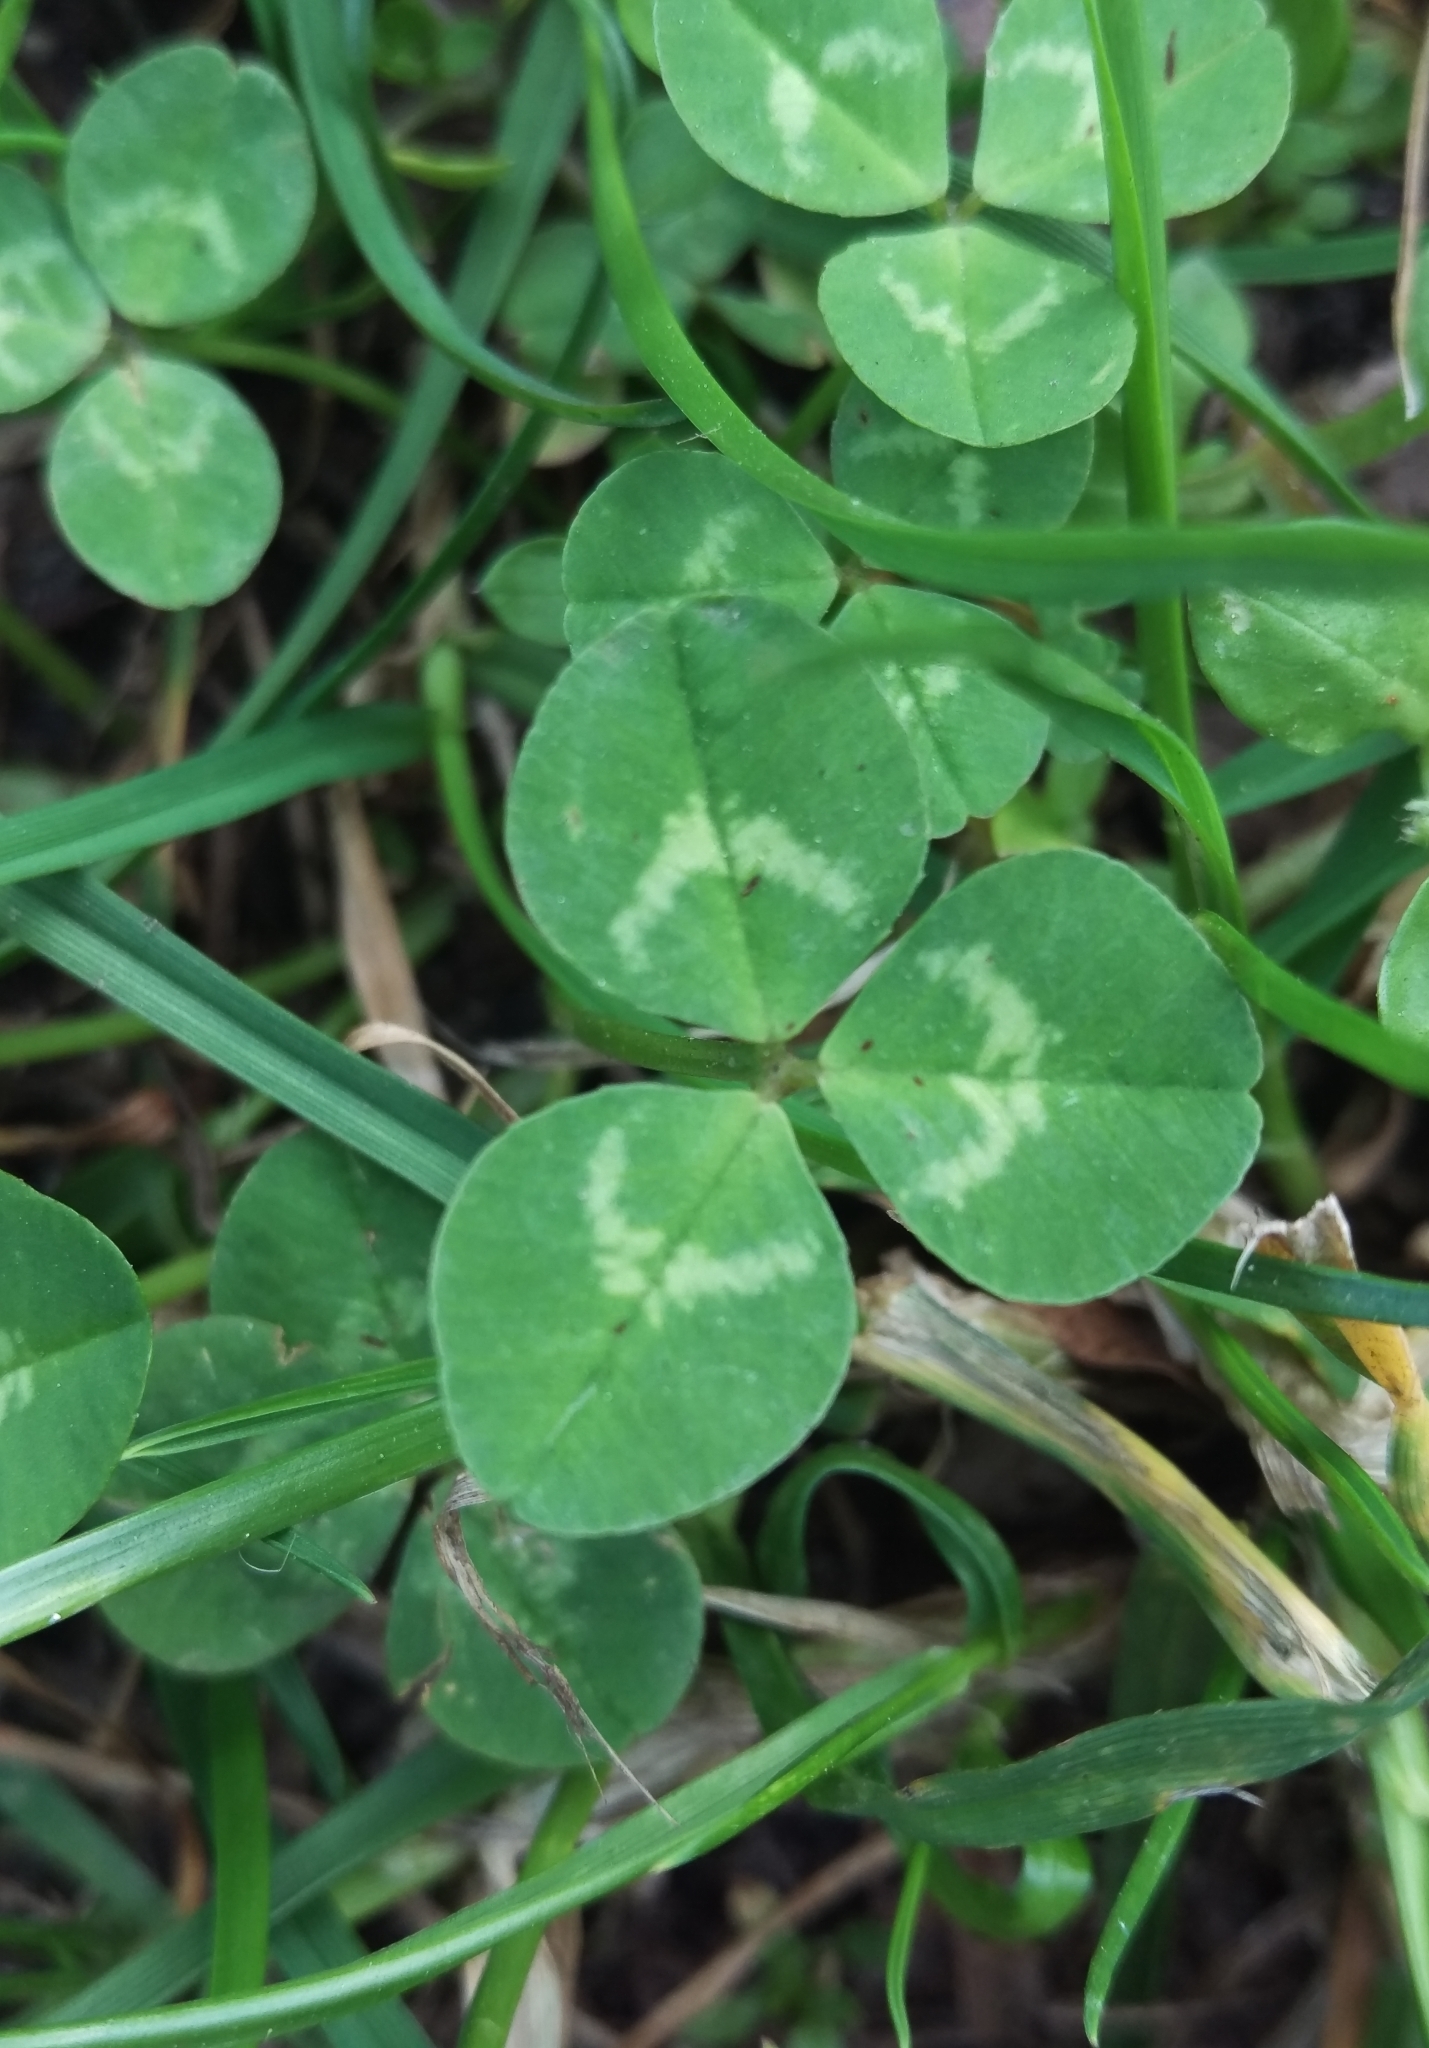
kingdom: Plantae
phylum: Tracheophyta
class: Magnoliopsida
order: Fabales
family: Fabaceae
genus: Trifolium
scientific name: Trifolium repens
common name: White clover
